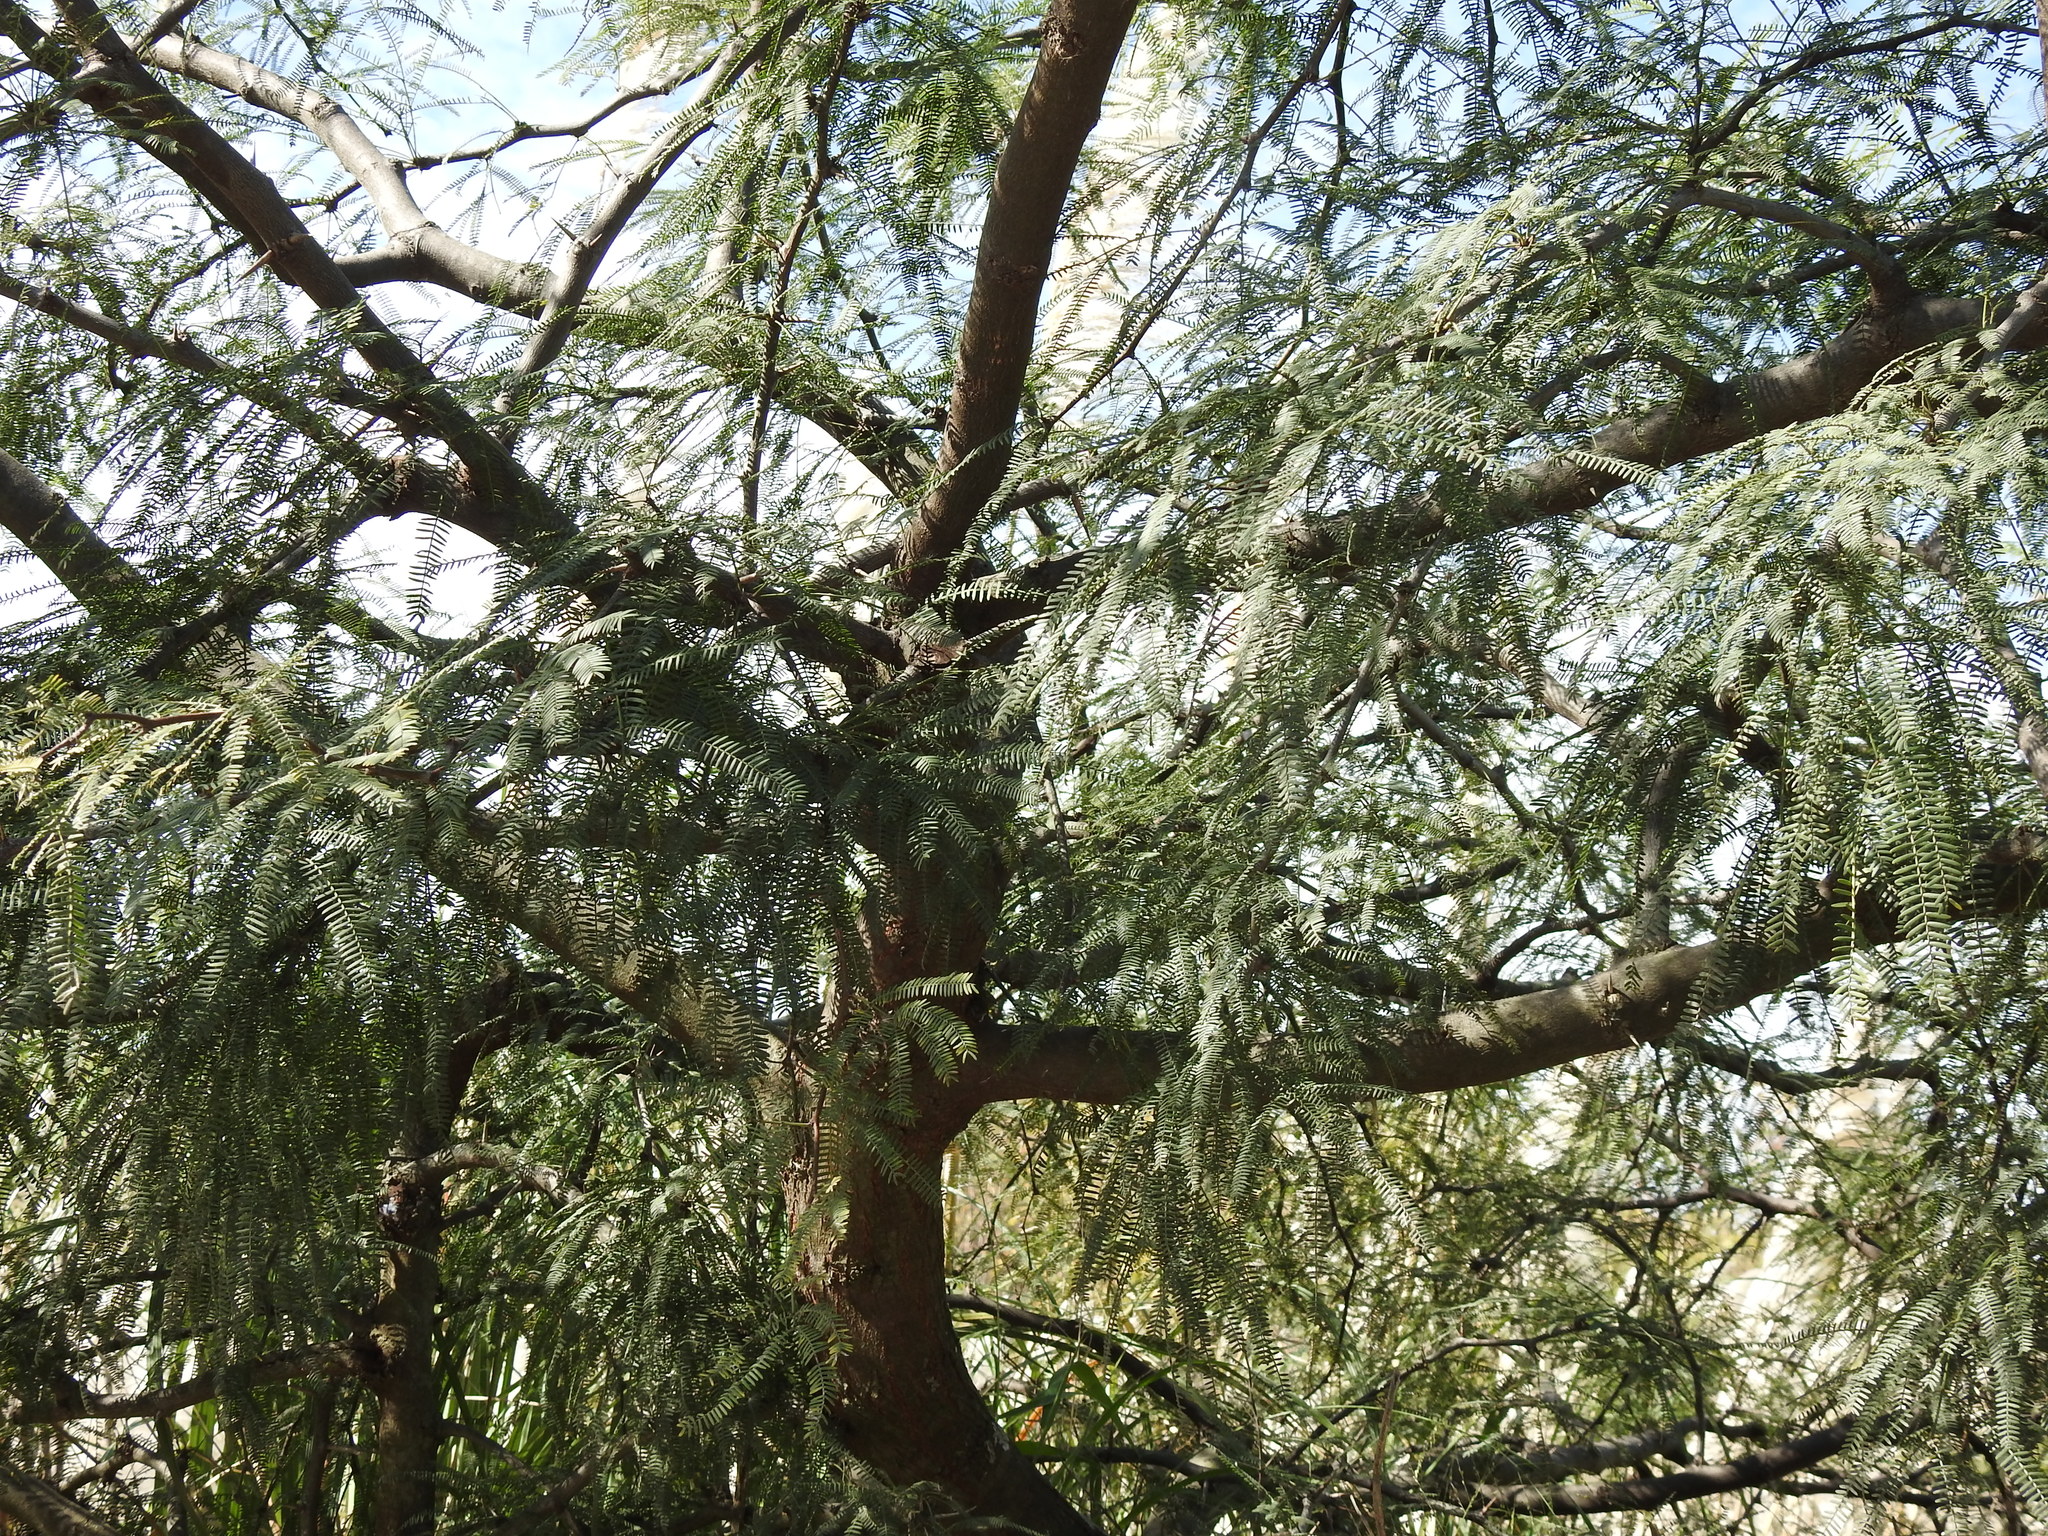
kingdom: Plantae
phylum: Tracheophyta
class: Magnoliopsida
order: Fabales
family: Fabaceae
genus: Prosopis
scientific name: Prosopis alba
